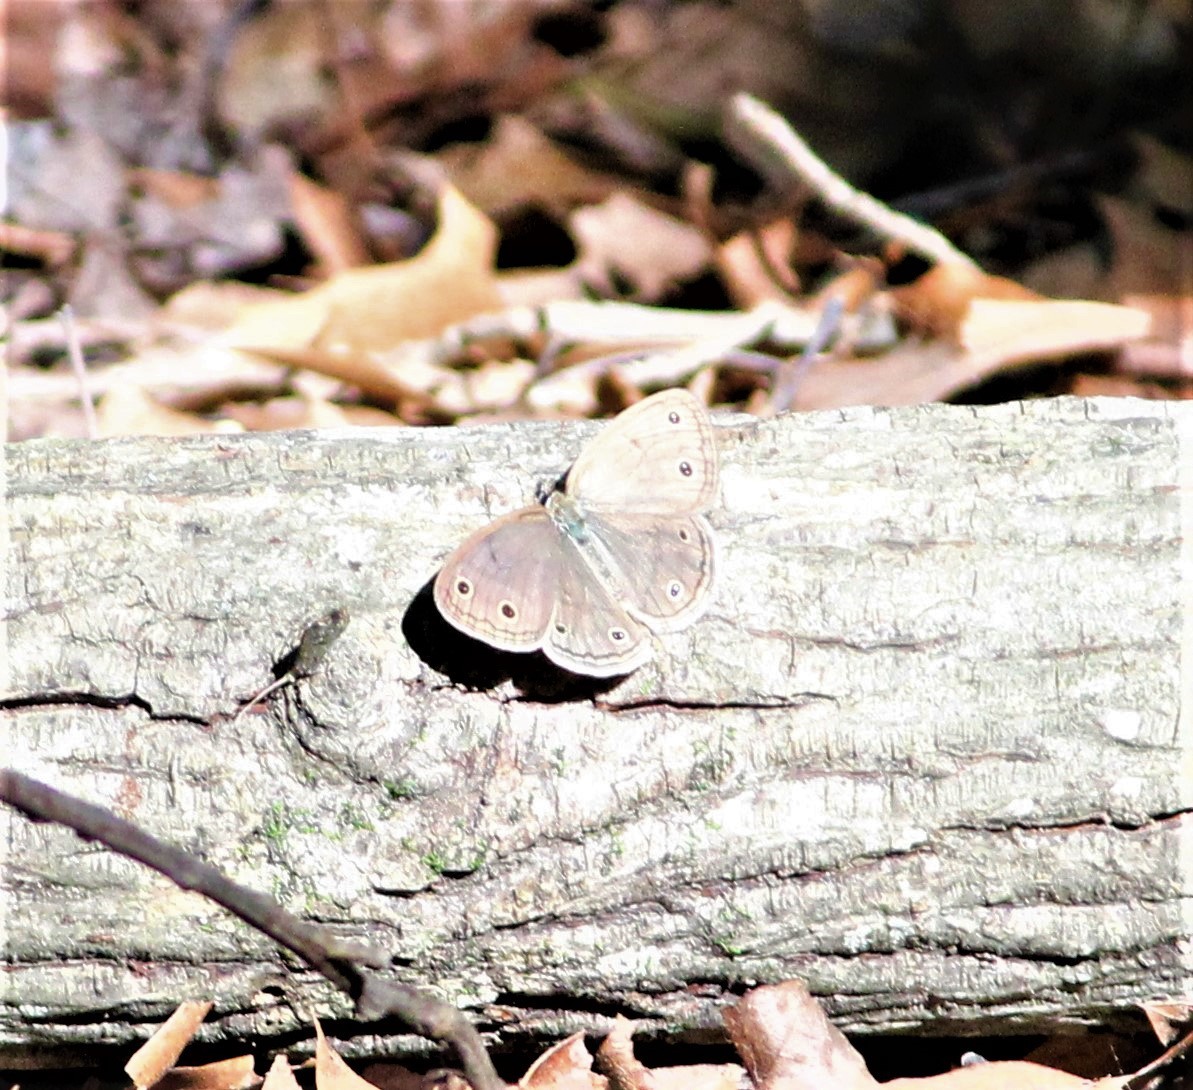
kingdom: Animalia
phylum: Arthropoda
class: Insecta
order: Lepidoptera
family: Nymphalidae
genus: Euptychia
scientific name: Euptychia cymela
